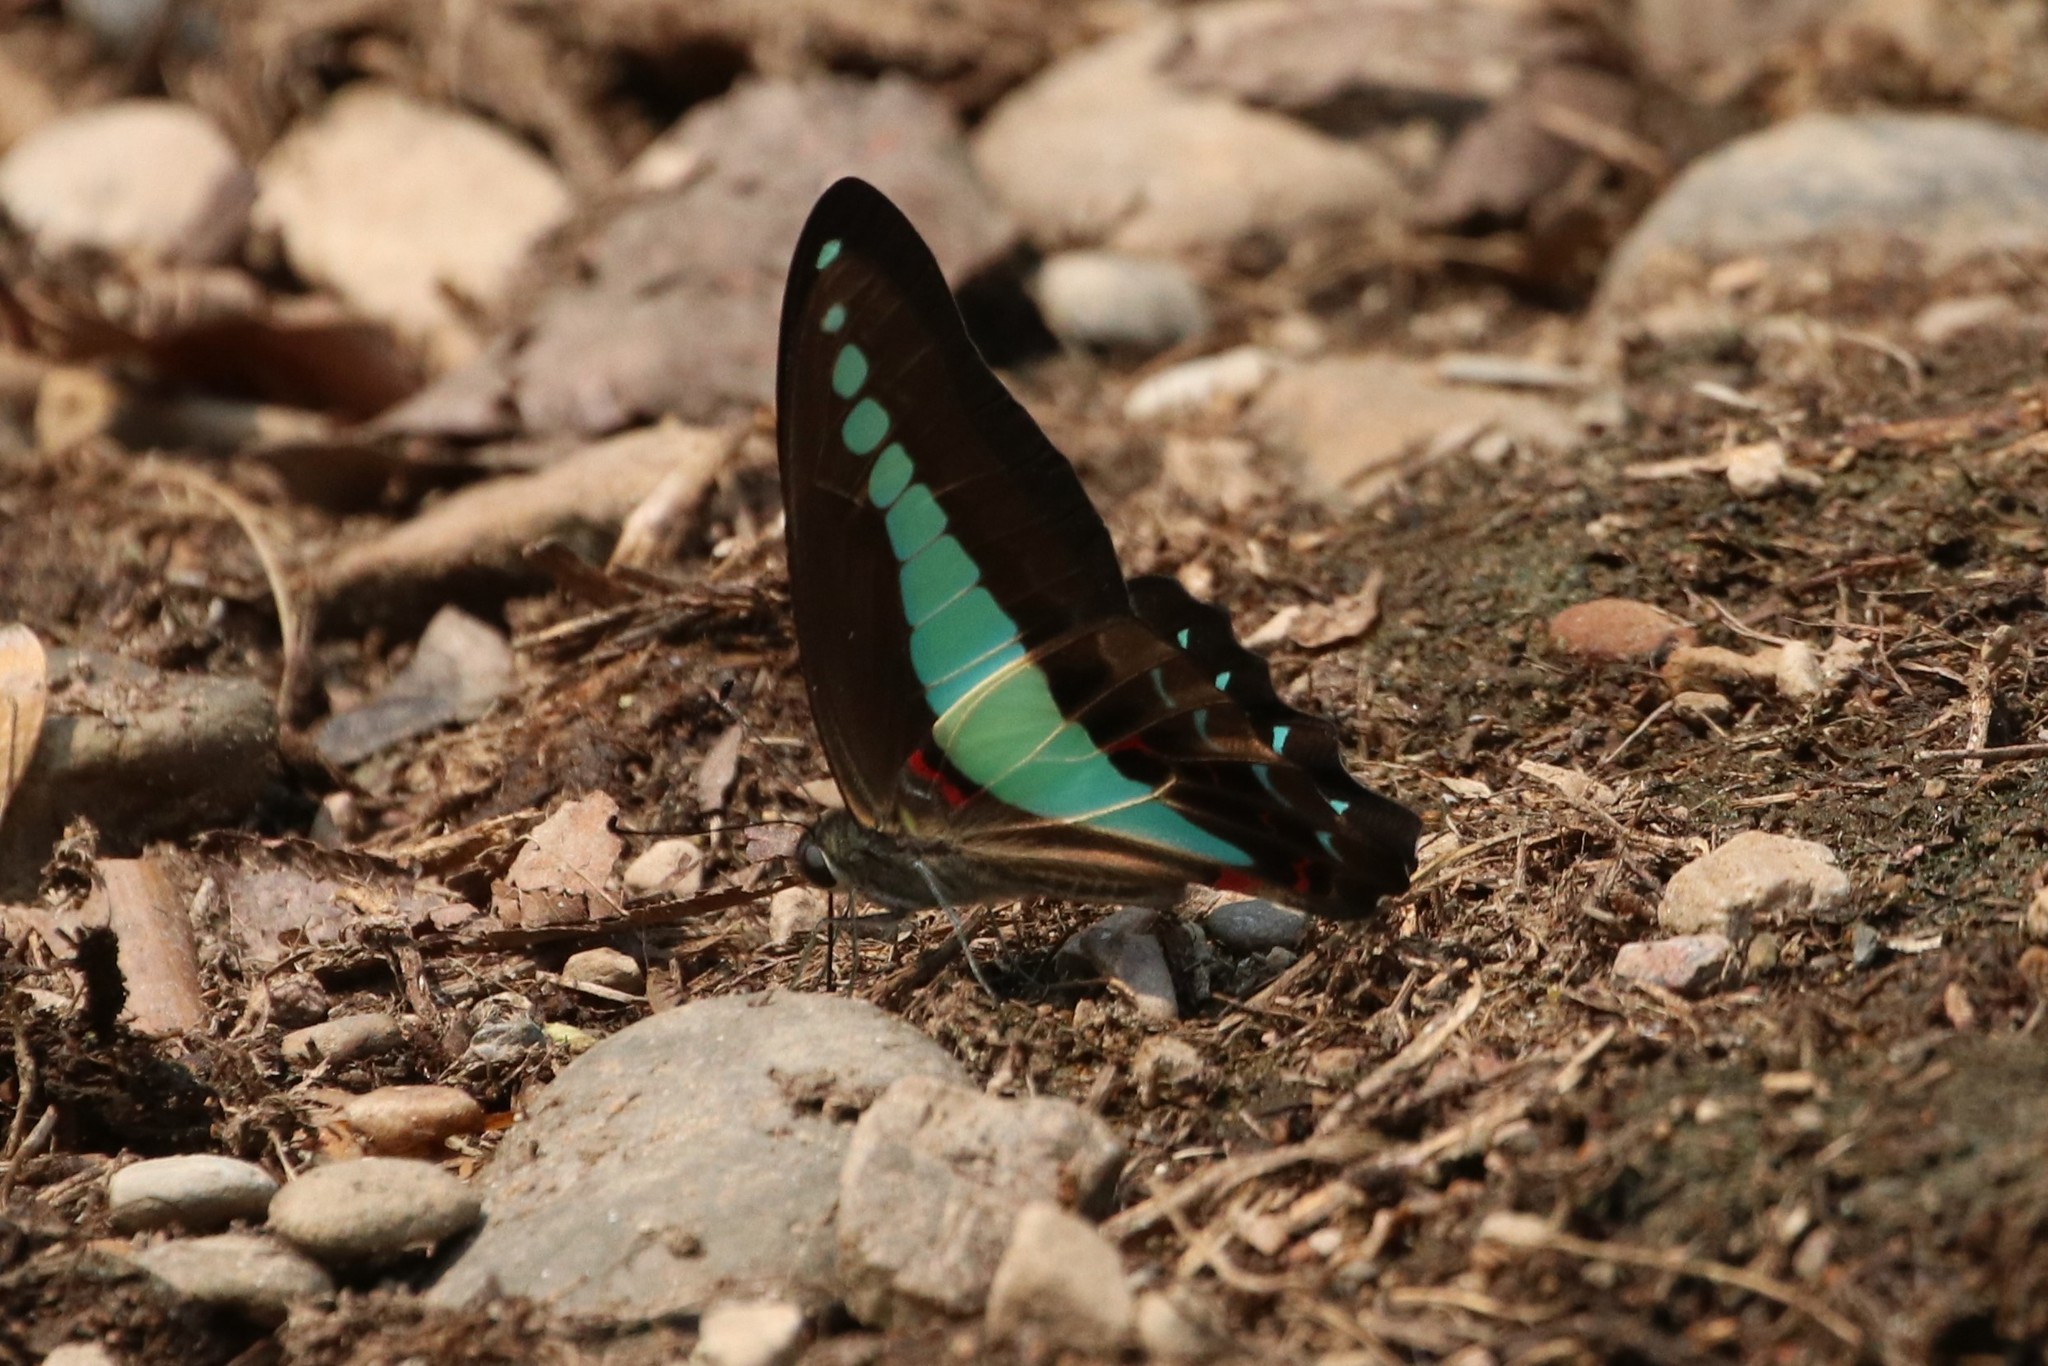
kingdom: Fungi
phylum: Ascomycota
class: Sordariomycetes
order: Microascales
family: Microascaceae
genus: Graphium
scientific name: Graphium sarpedon
